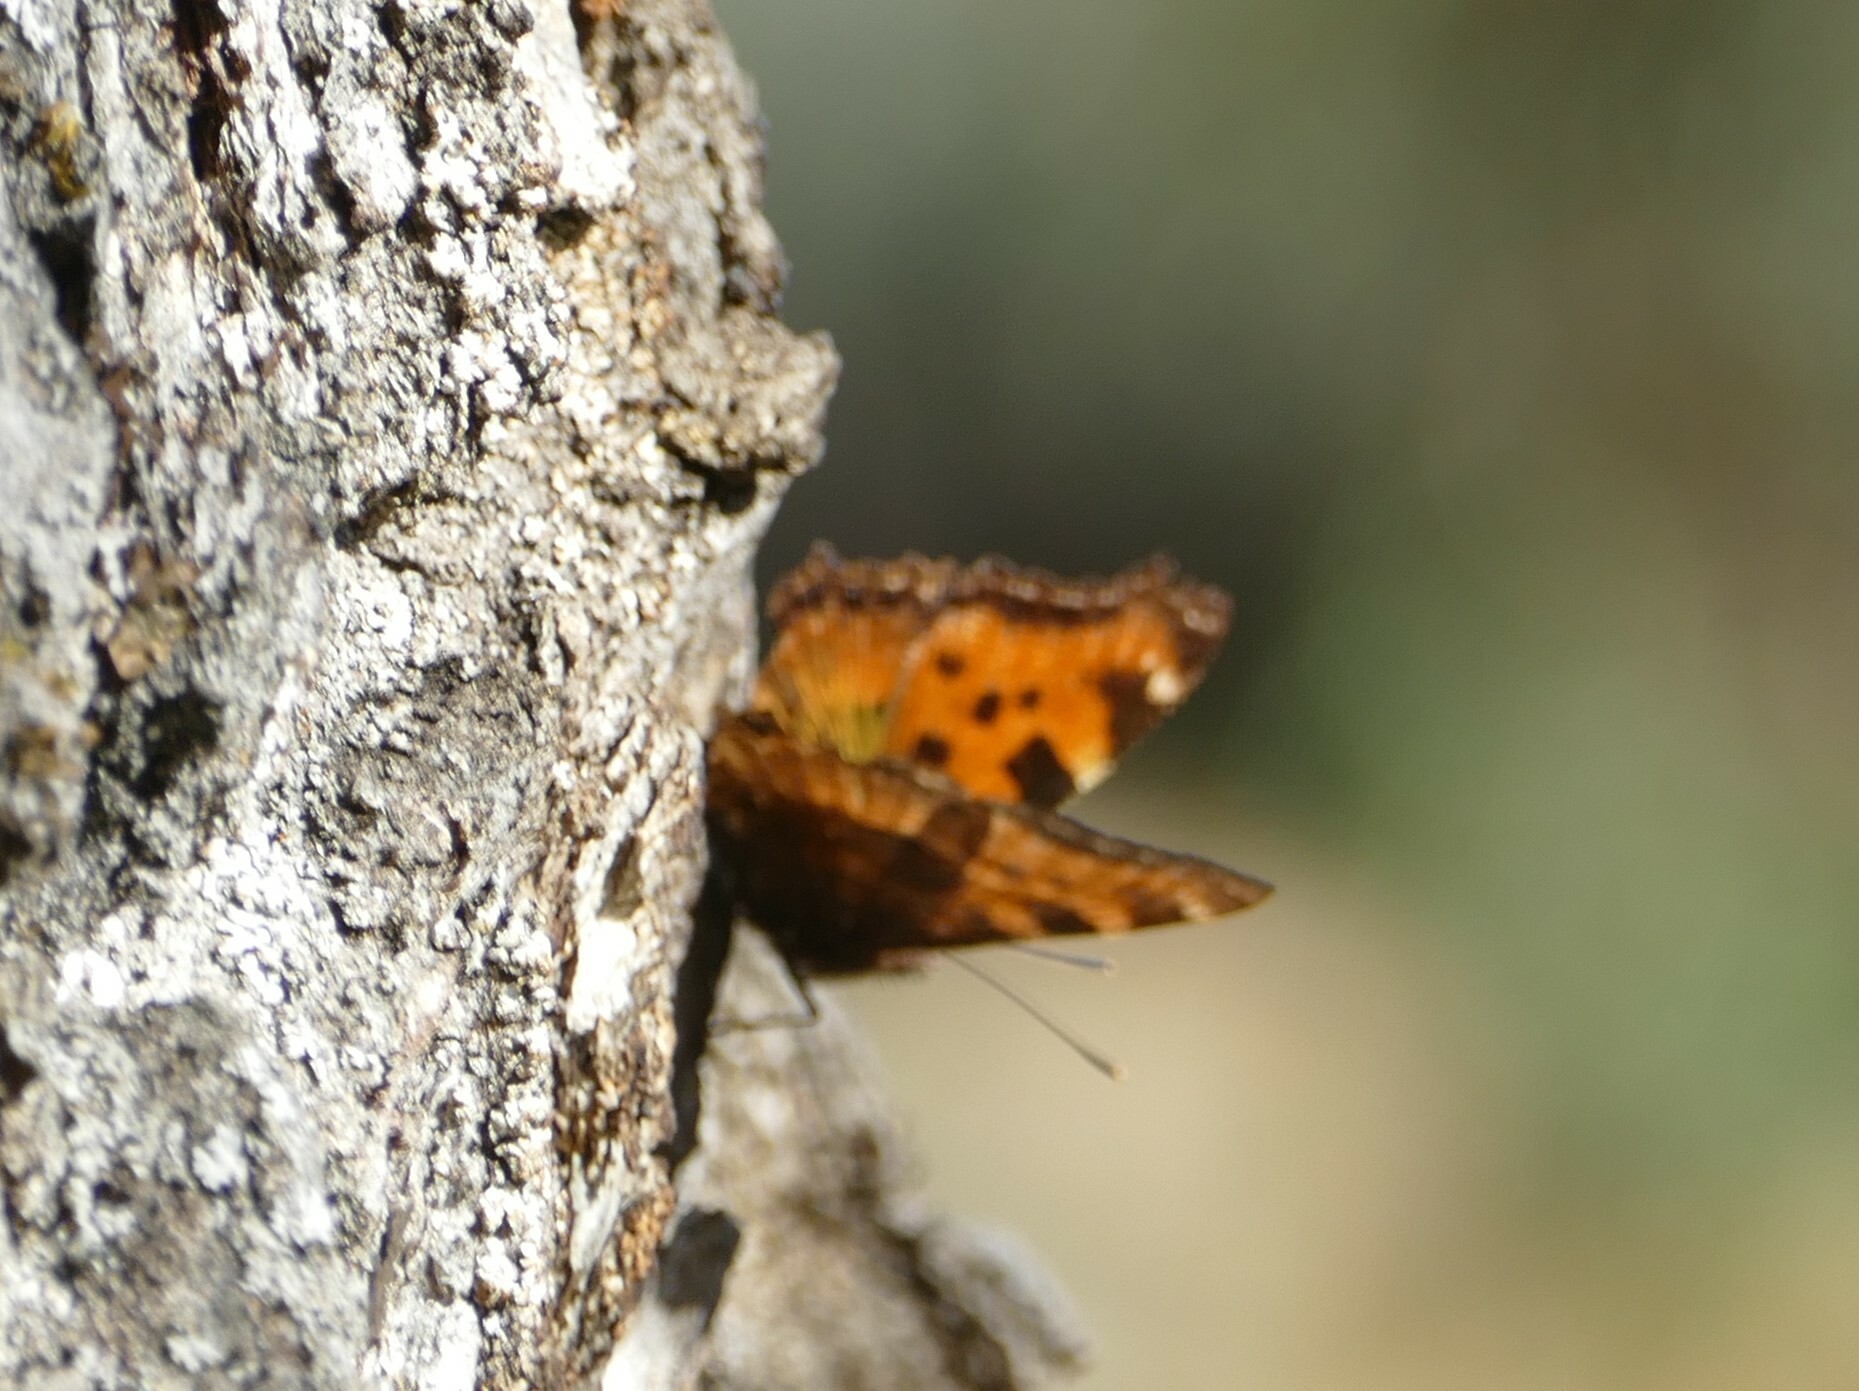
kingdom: Animalia
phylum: Arthropoda
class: Insecta
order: Lepidoptera
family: Nymphalidae
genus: Nymphalis
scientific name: Nymphalis polychloros
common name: Large tortoiseshell
